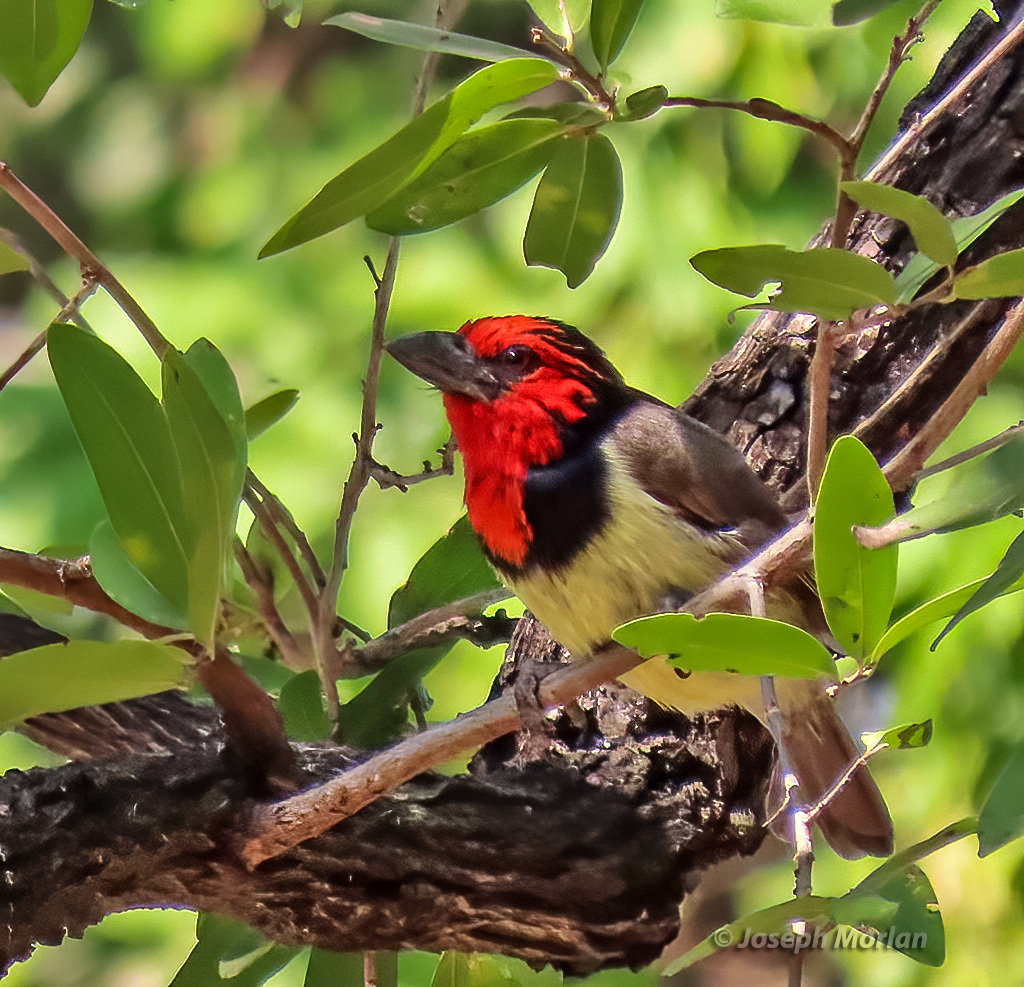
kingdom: Animalia
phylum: Chordata
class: Aves
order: Piciformes
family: Lybiidae
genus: Lybius
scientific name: Lybius torquatus
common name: Black-collared barbet
